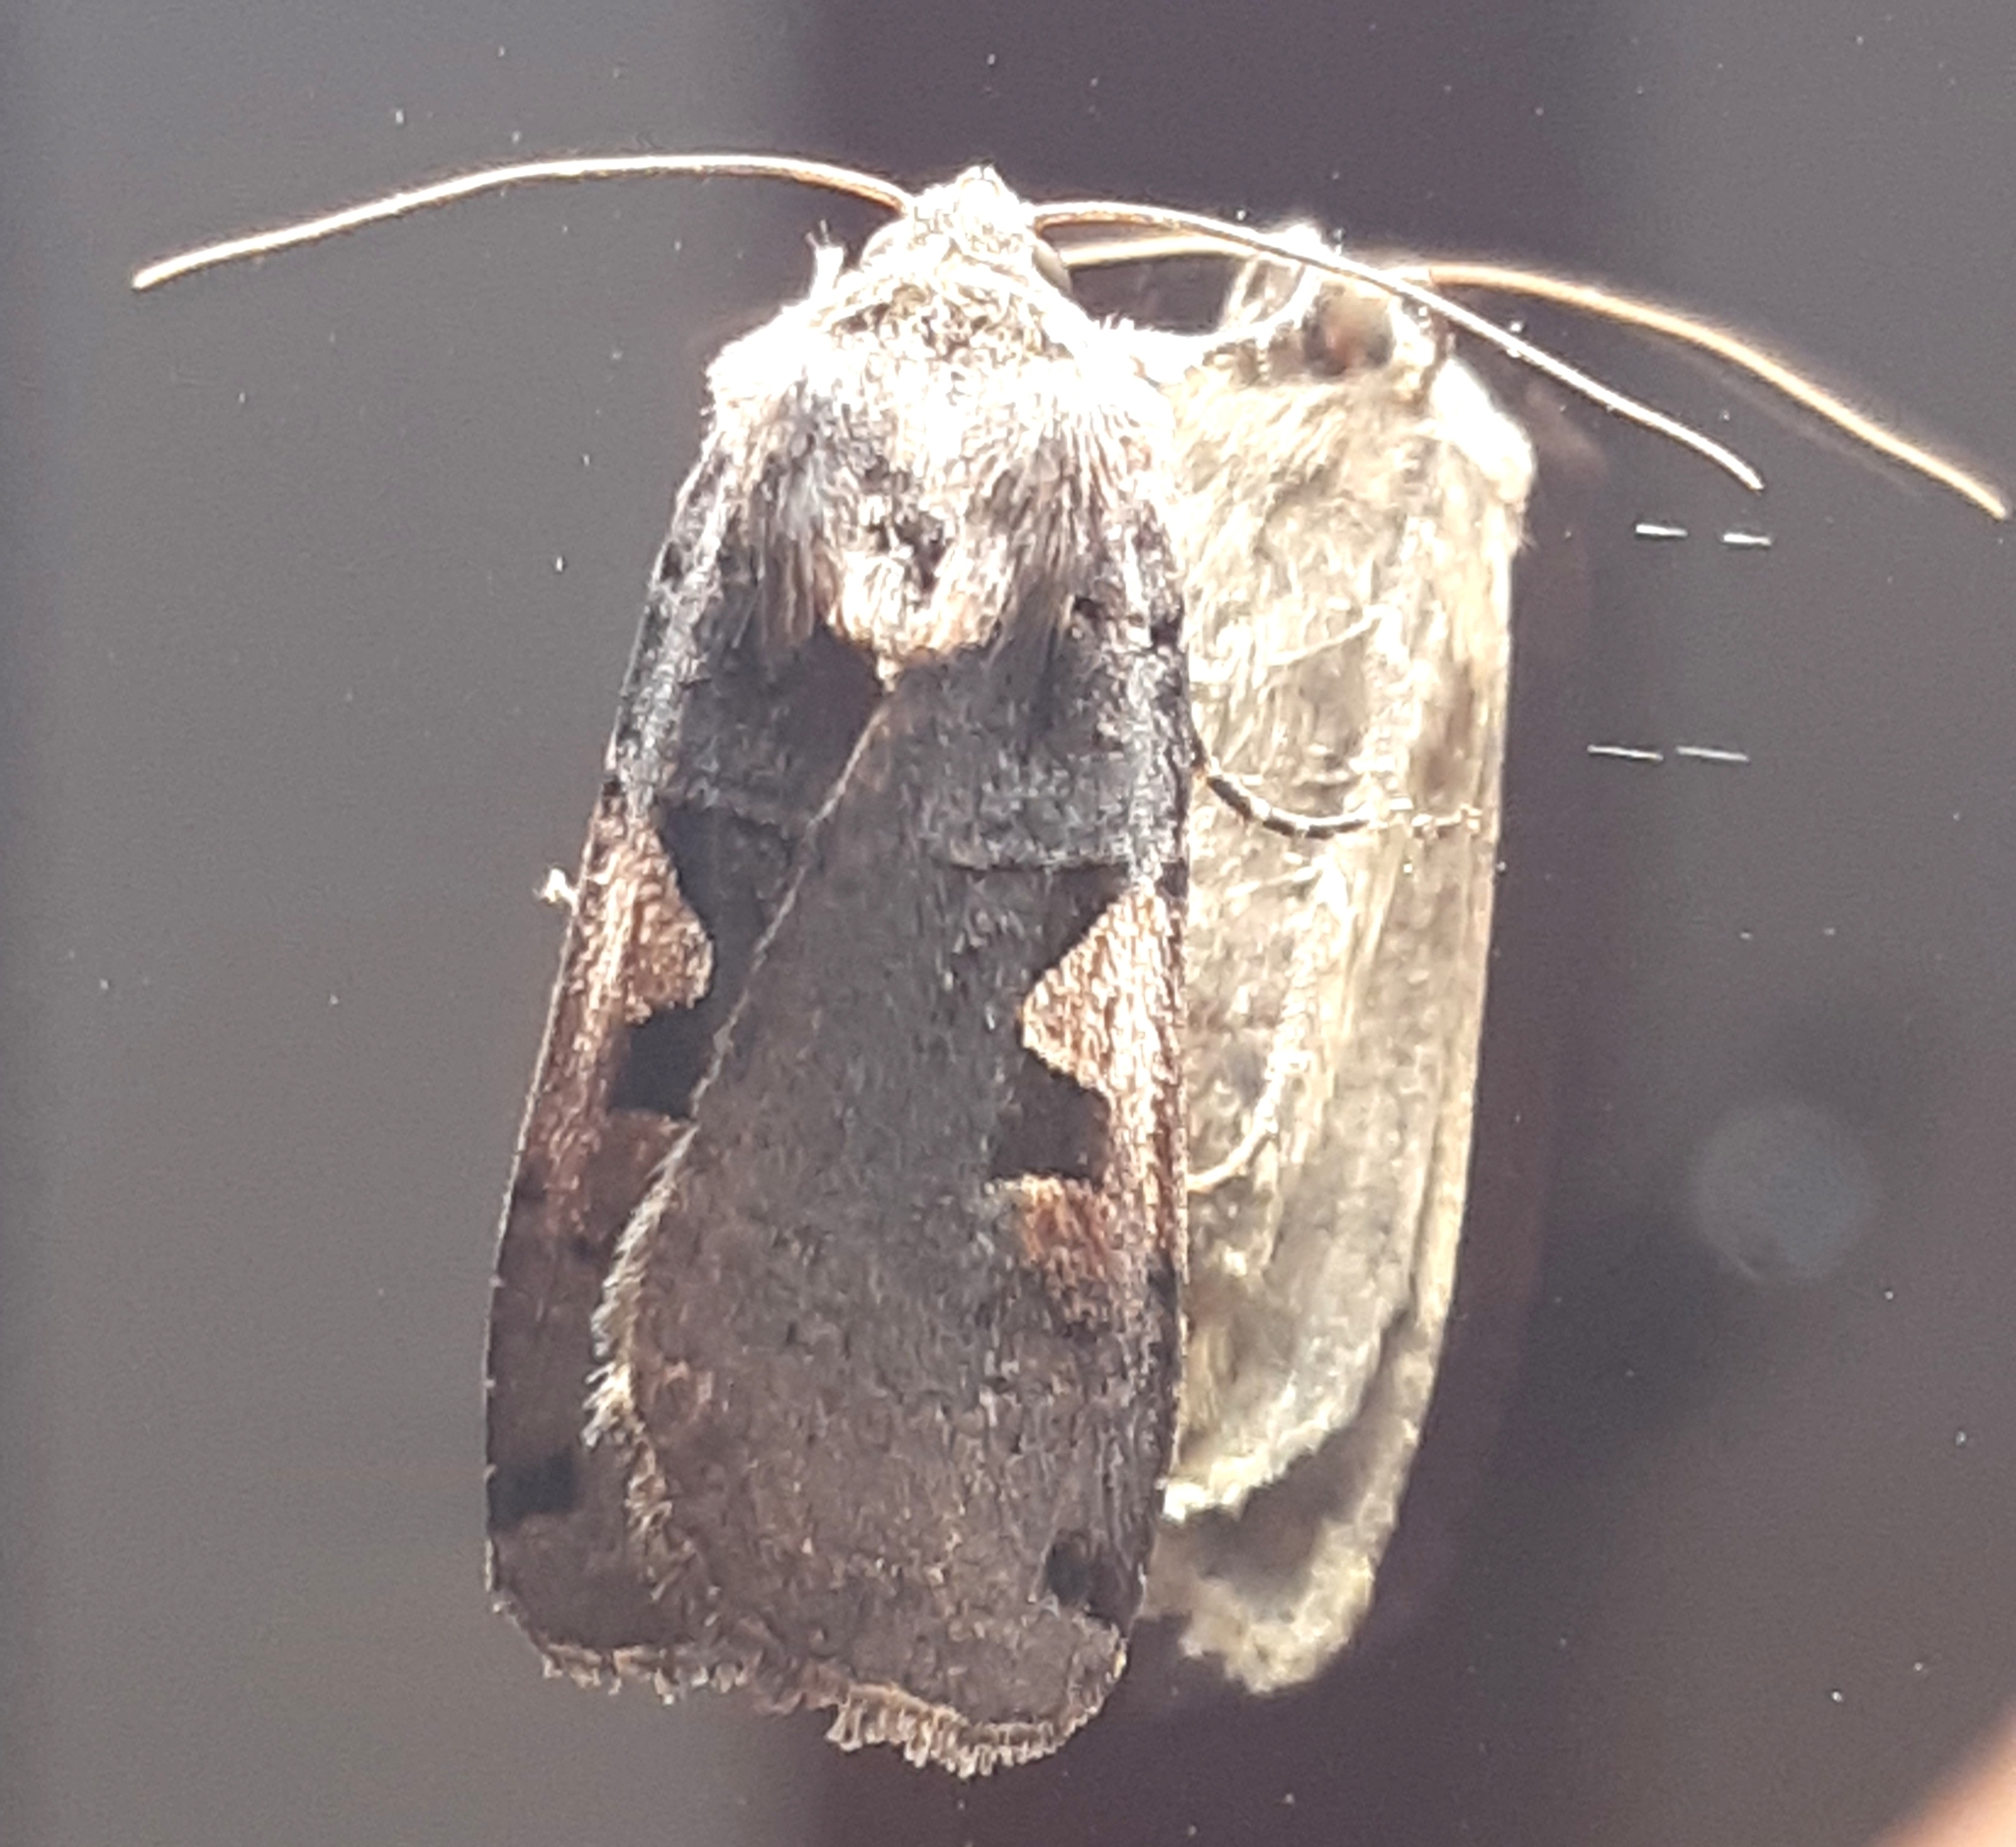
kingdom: Animalia
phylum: Arthropoda
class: Insecta
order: Lepidoptera
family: Noctuidae
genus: Xestia
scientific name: Xestia c-nigrum
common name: Setaceous hebrew character
